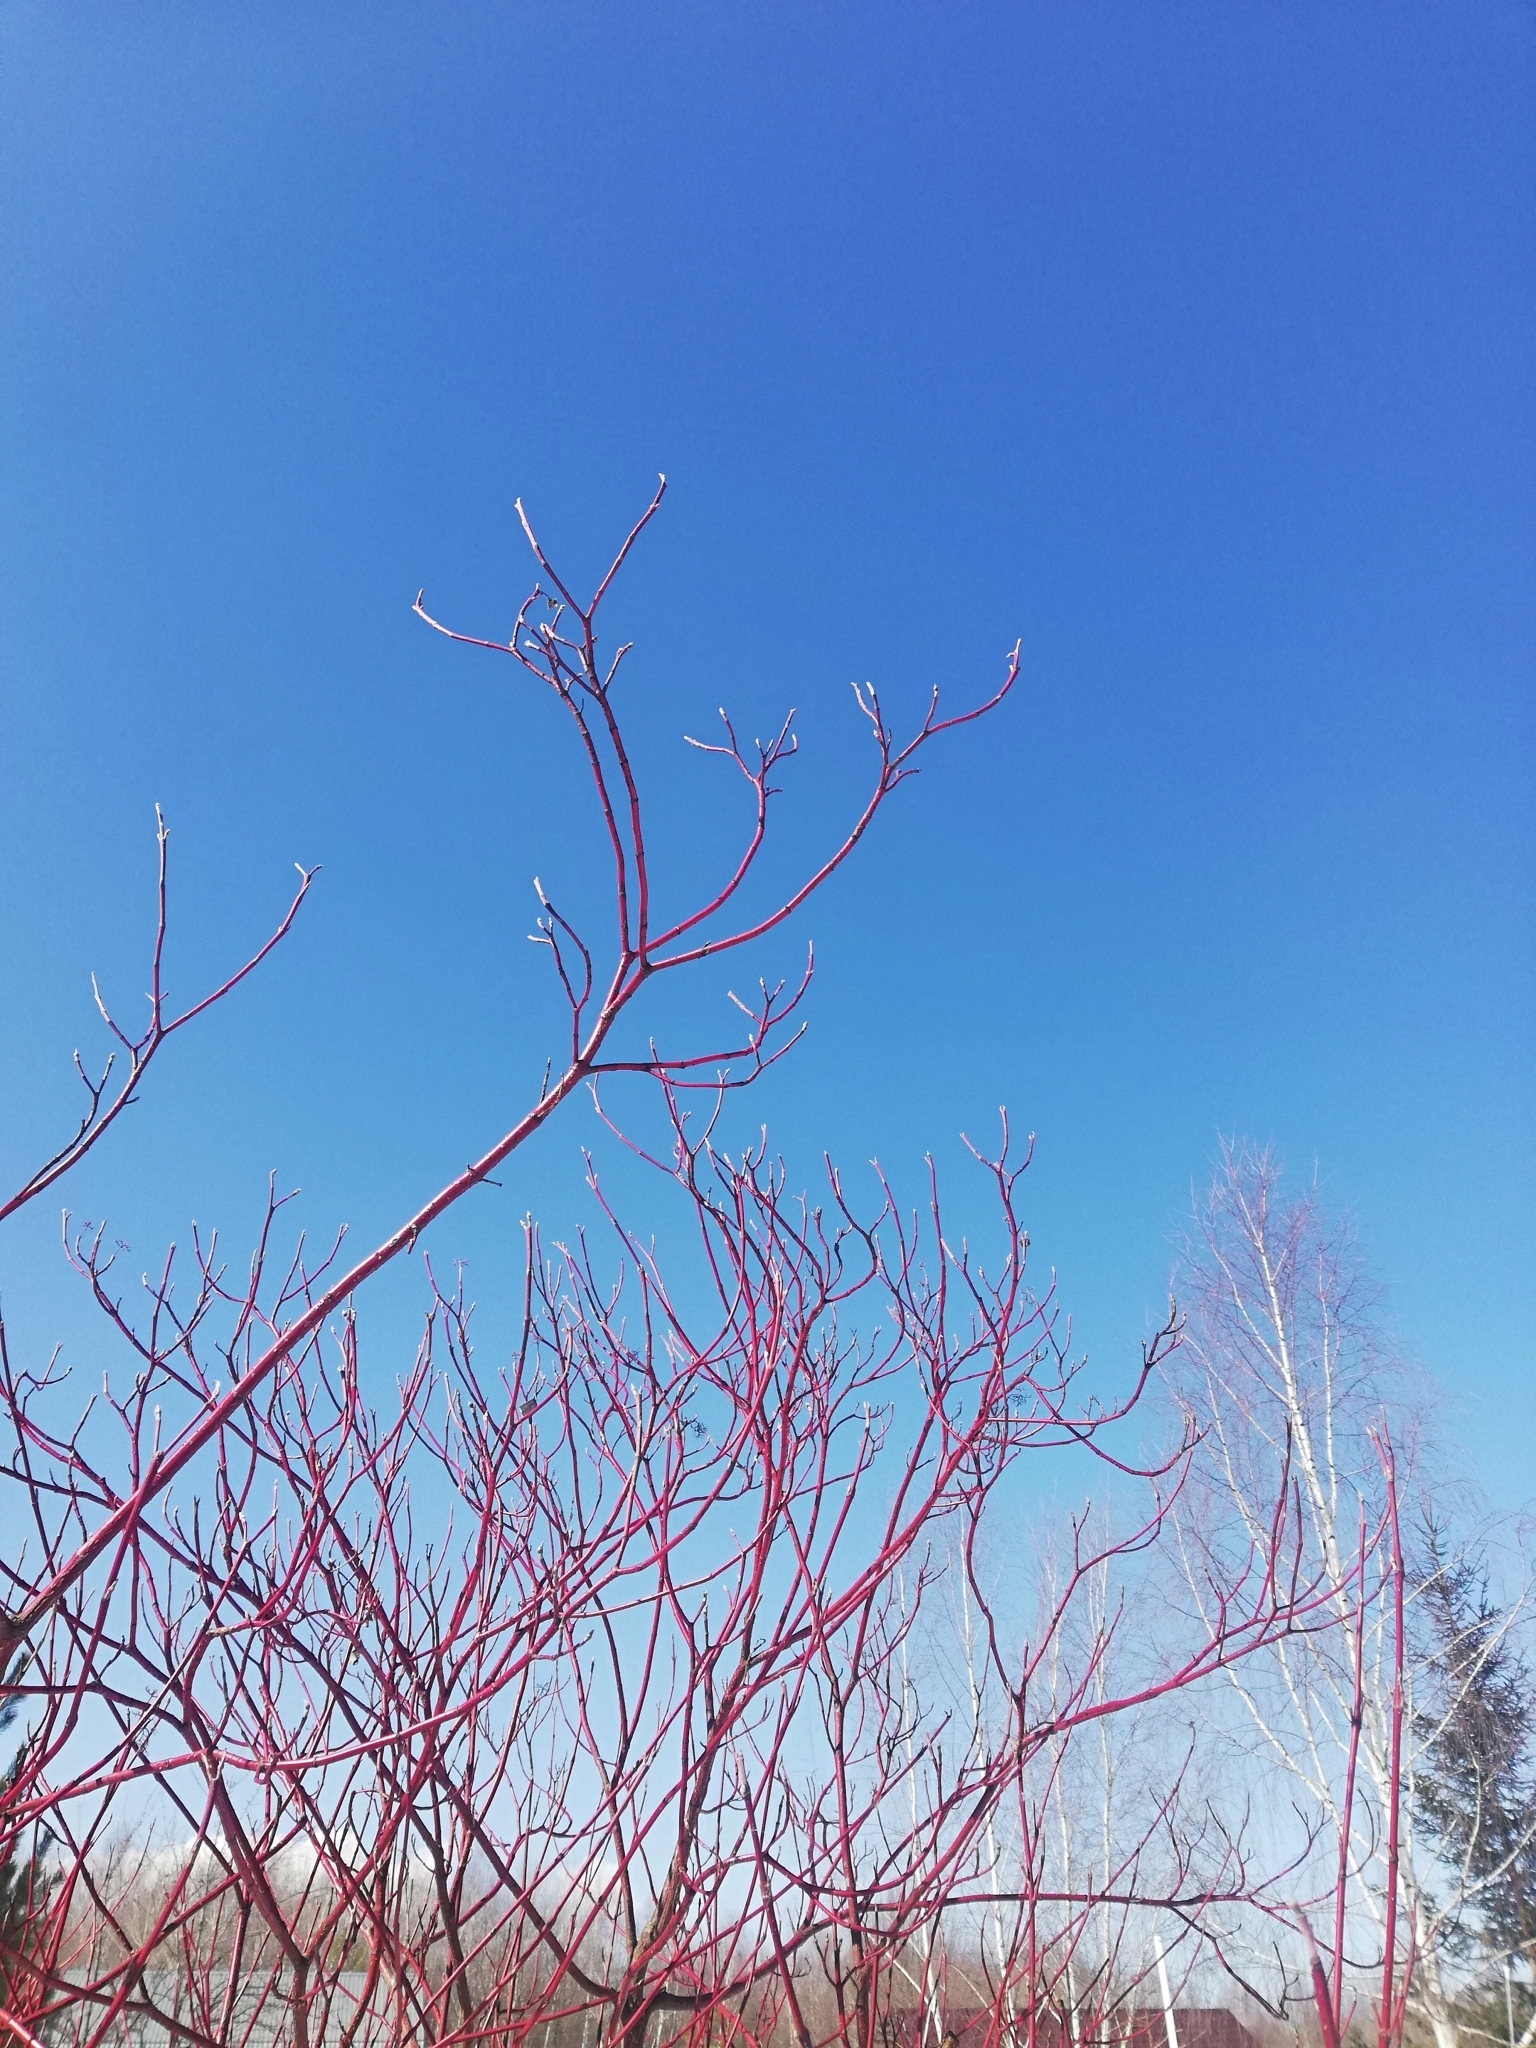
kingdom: Plantae
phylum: Tracheophyta
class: Magnoliopsida
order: Cornales
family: Cornaceae
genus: Cornus
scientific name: Cornus alba
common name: White dogwood
